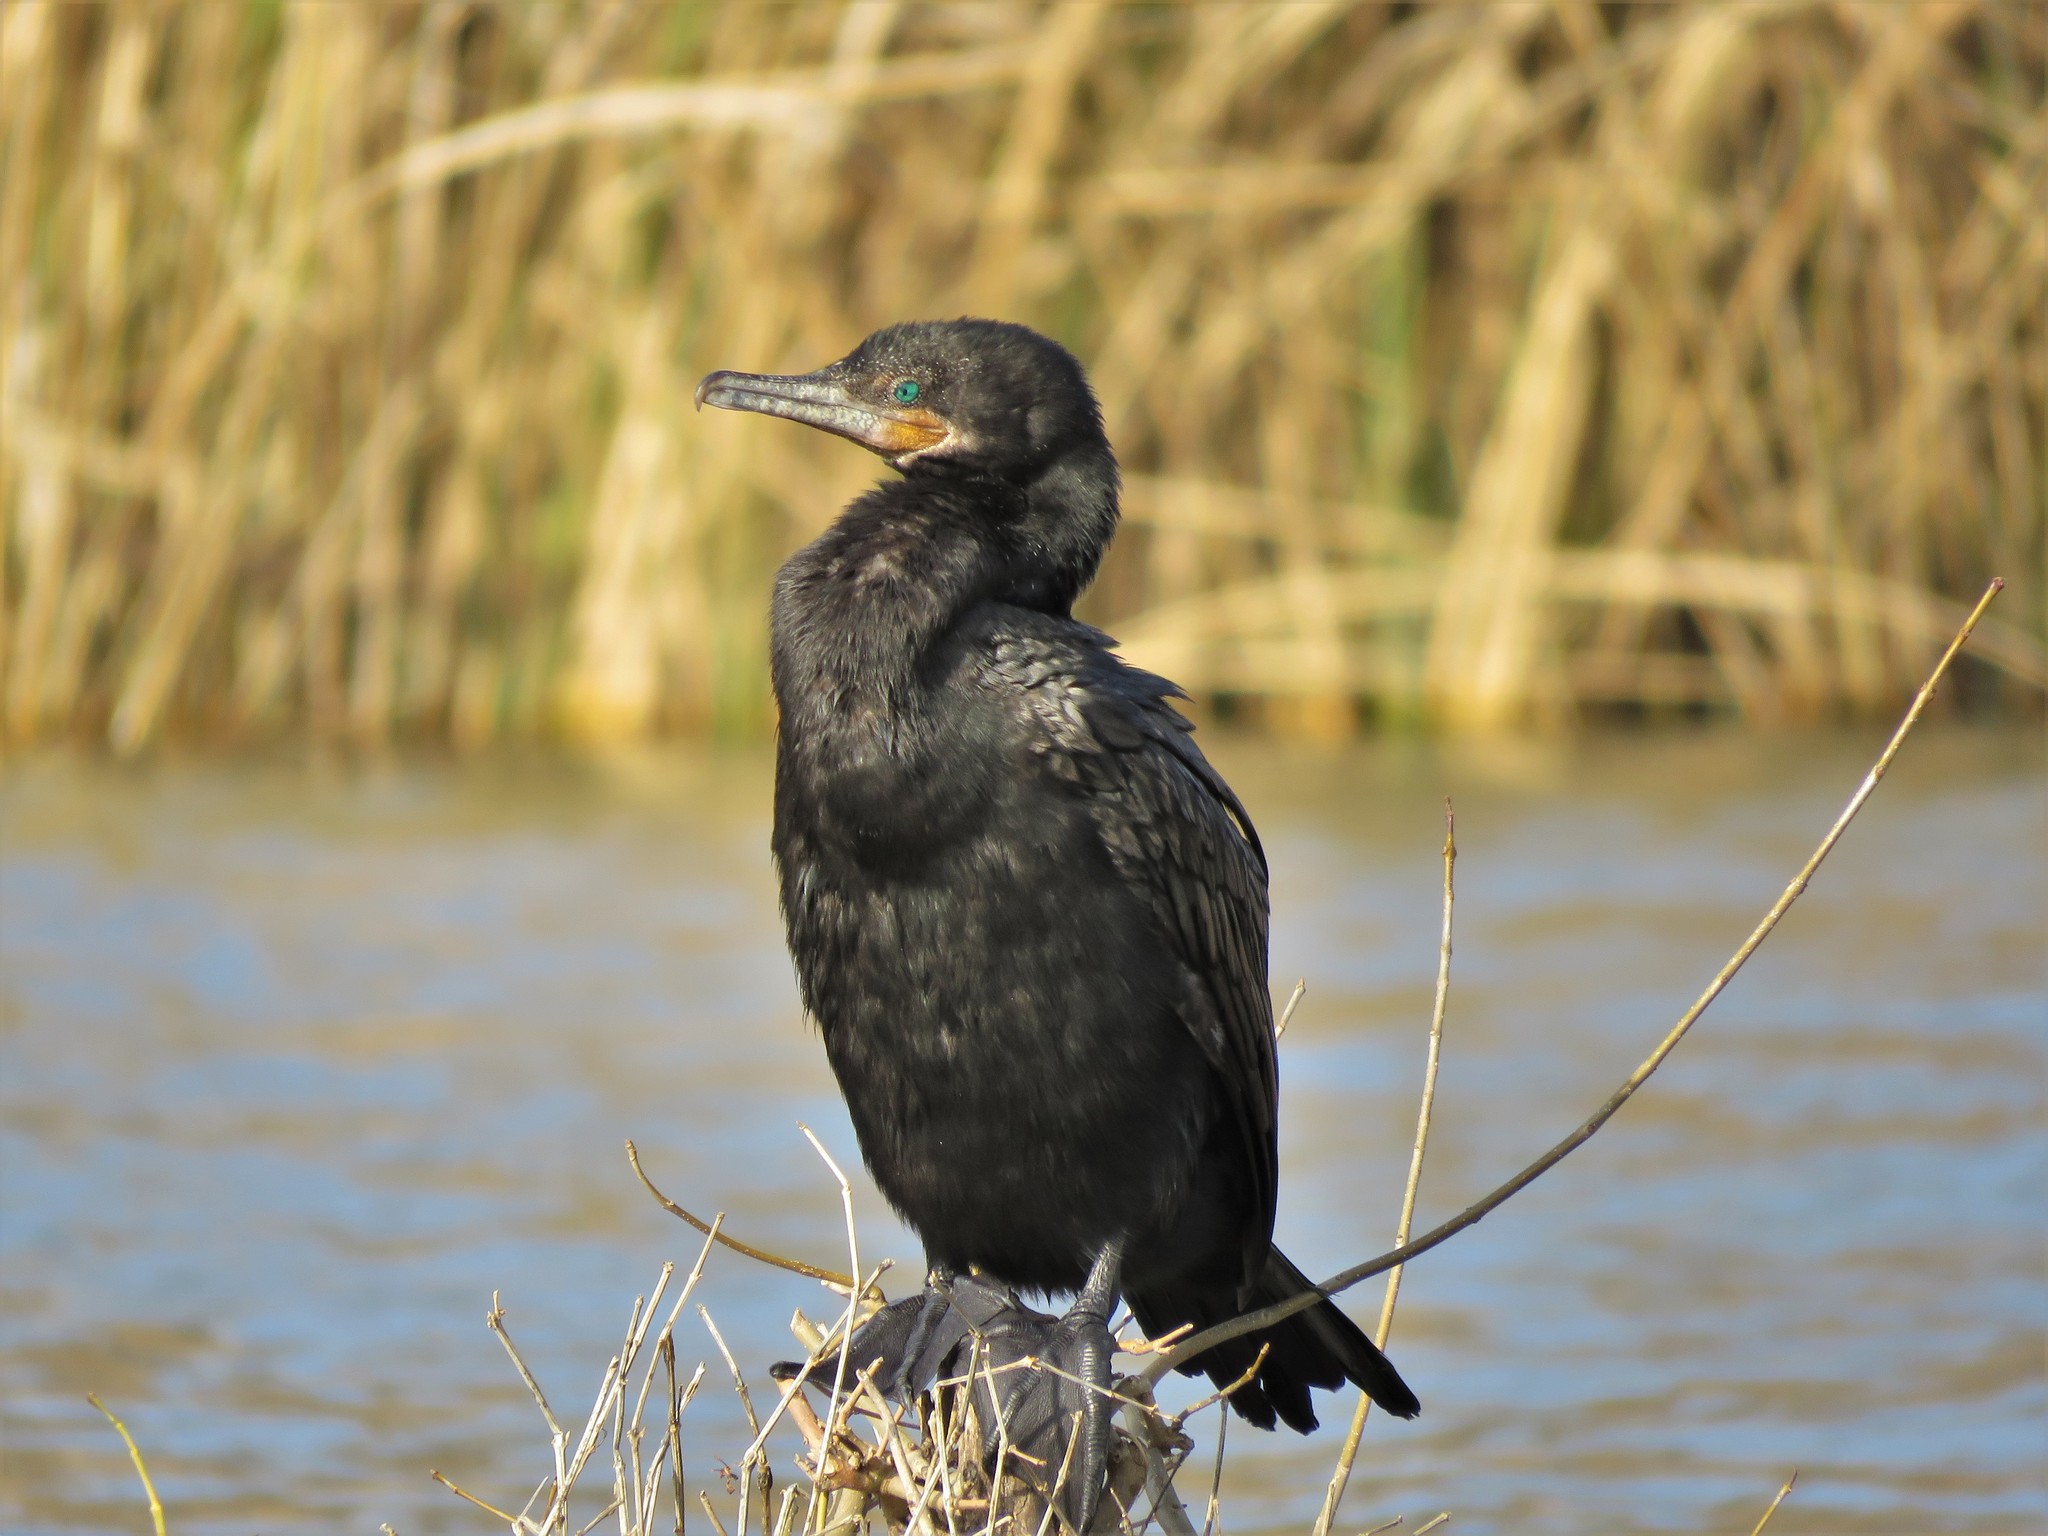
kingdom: Animalia
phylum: Chordata
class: Aves
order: Suliformes
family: Phalacrocoracidae
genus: Phalacrocorax
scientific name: Phalacrocorax brasilianus
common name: Neotropic cormorant
